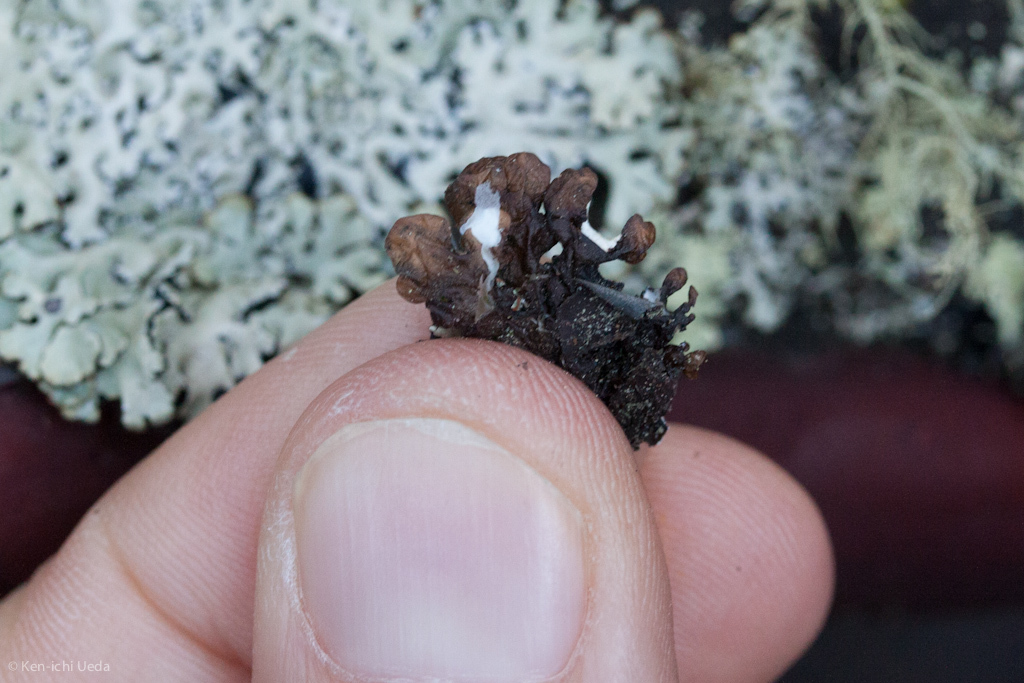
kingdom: Fungi
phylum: Ascomycota
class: Lecanoromycetes
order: Lecanorales
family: Parmeliaceae
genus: Hypogymnia
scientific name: Hypogymnia physodes
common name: Dark crottle
